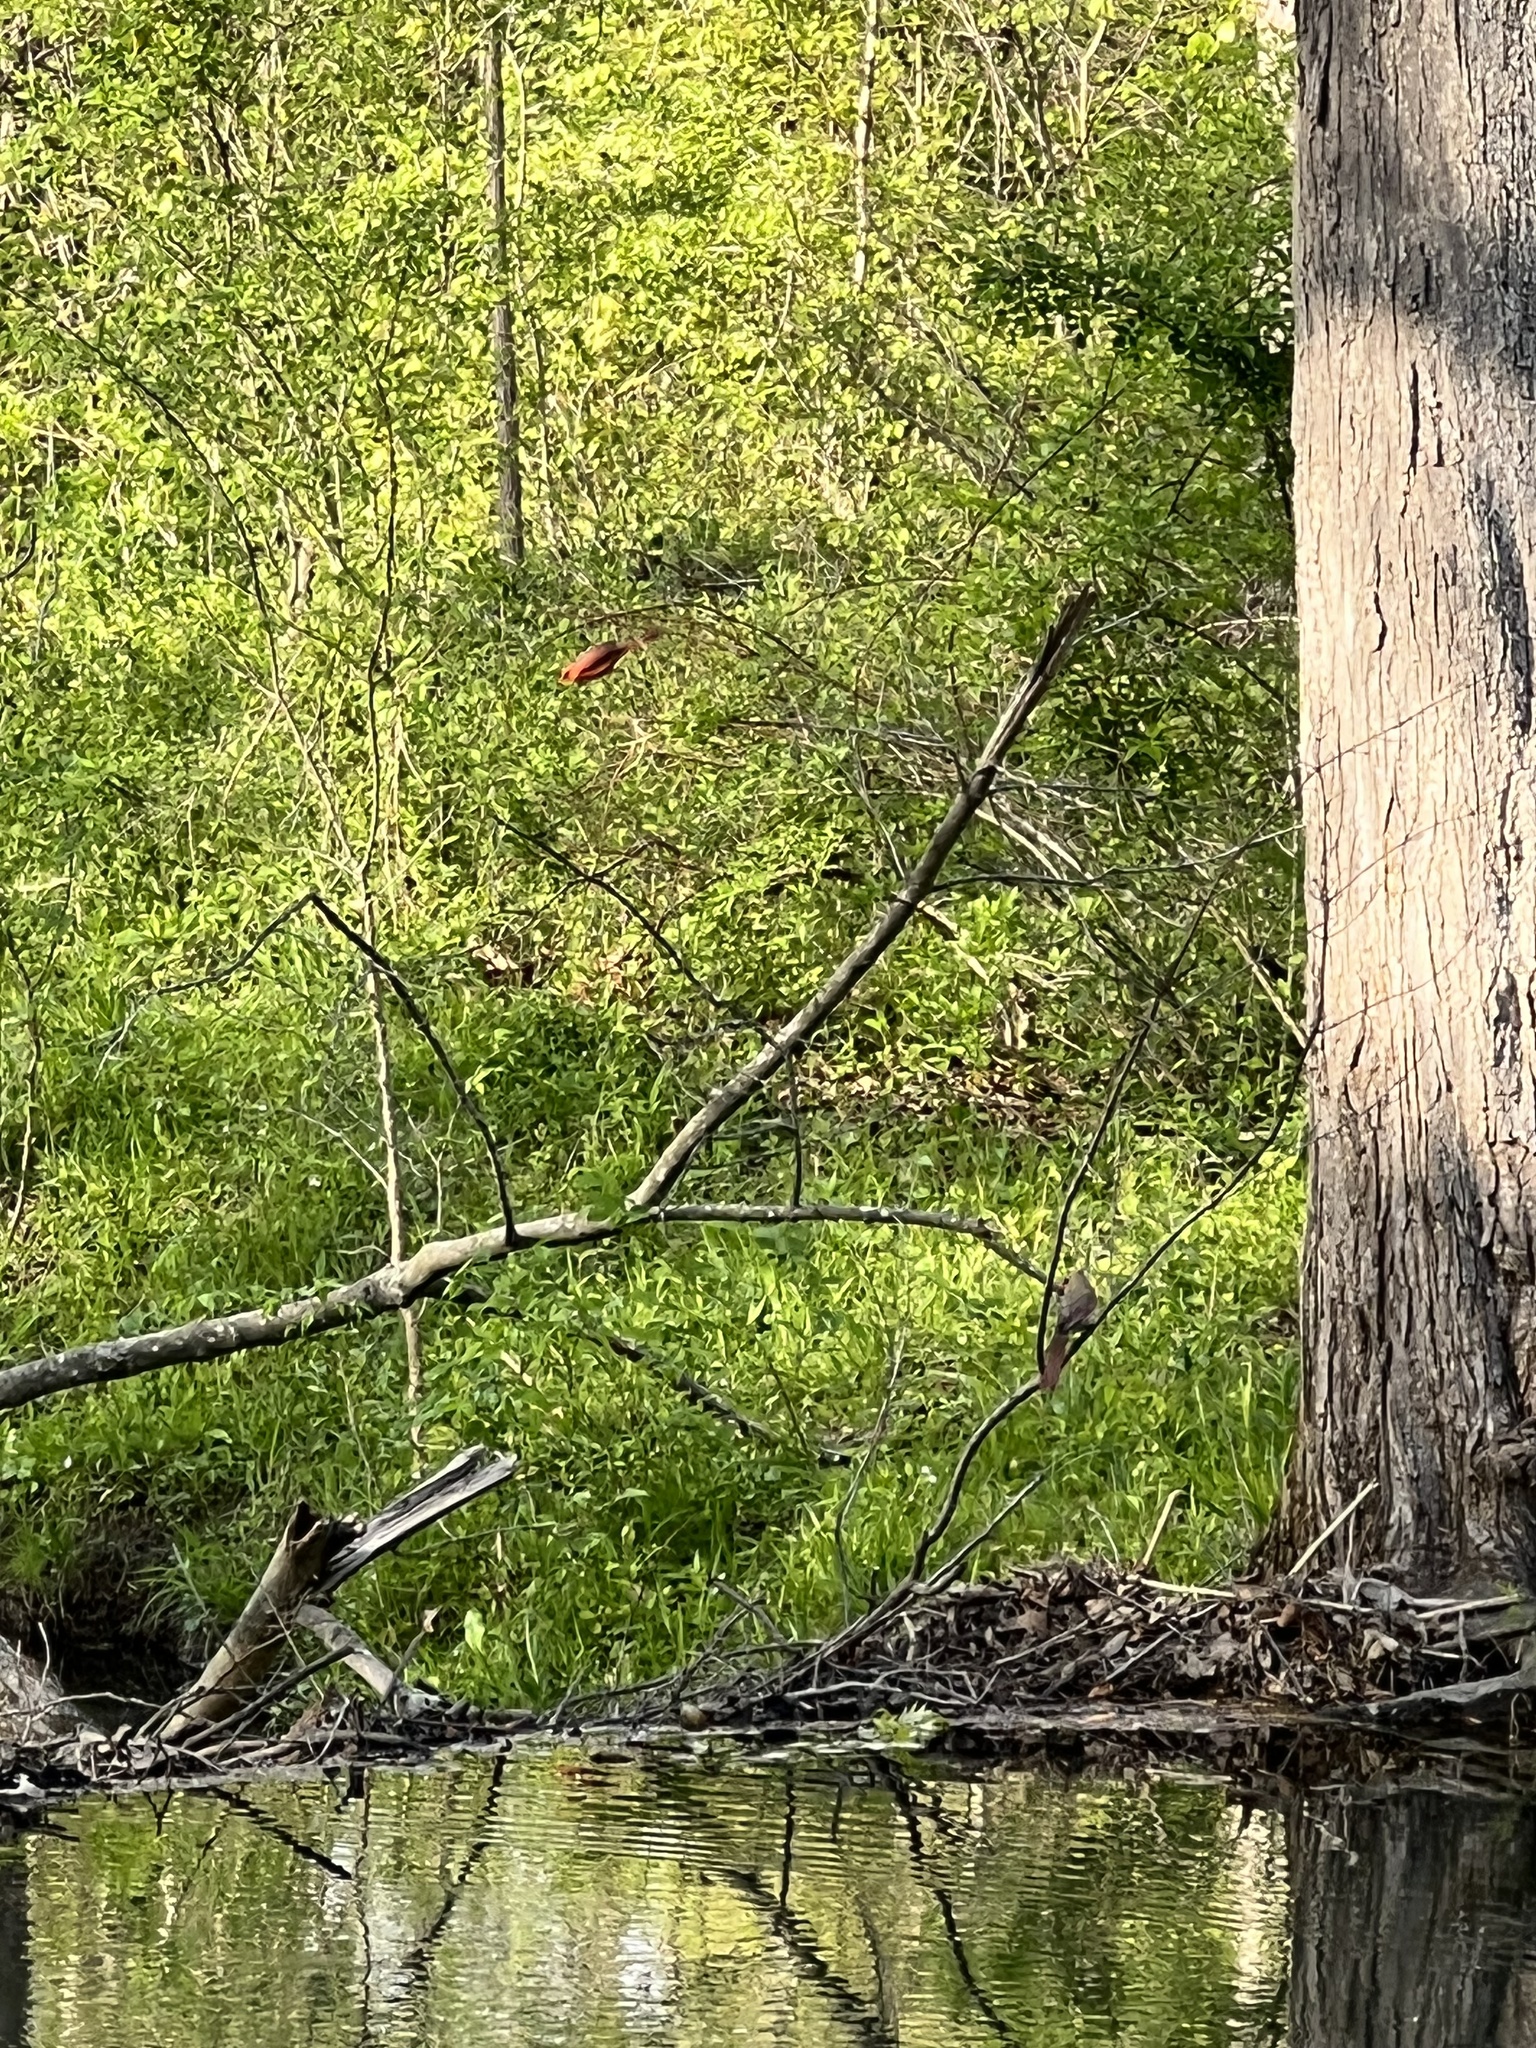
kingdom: Animalia
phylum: Chordata
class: Aves
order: Passeriformes
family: Cardinalidae
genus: Cardinalis
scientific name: Cardinalis cardinalis
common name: Northern cardinal
